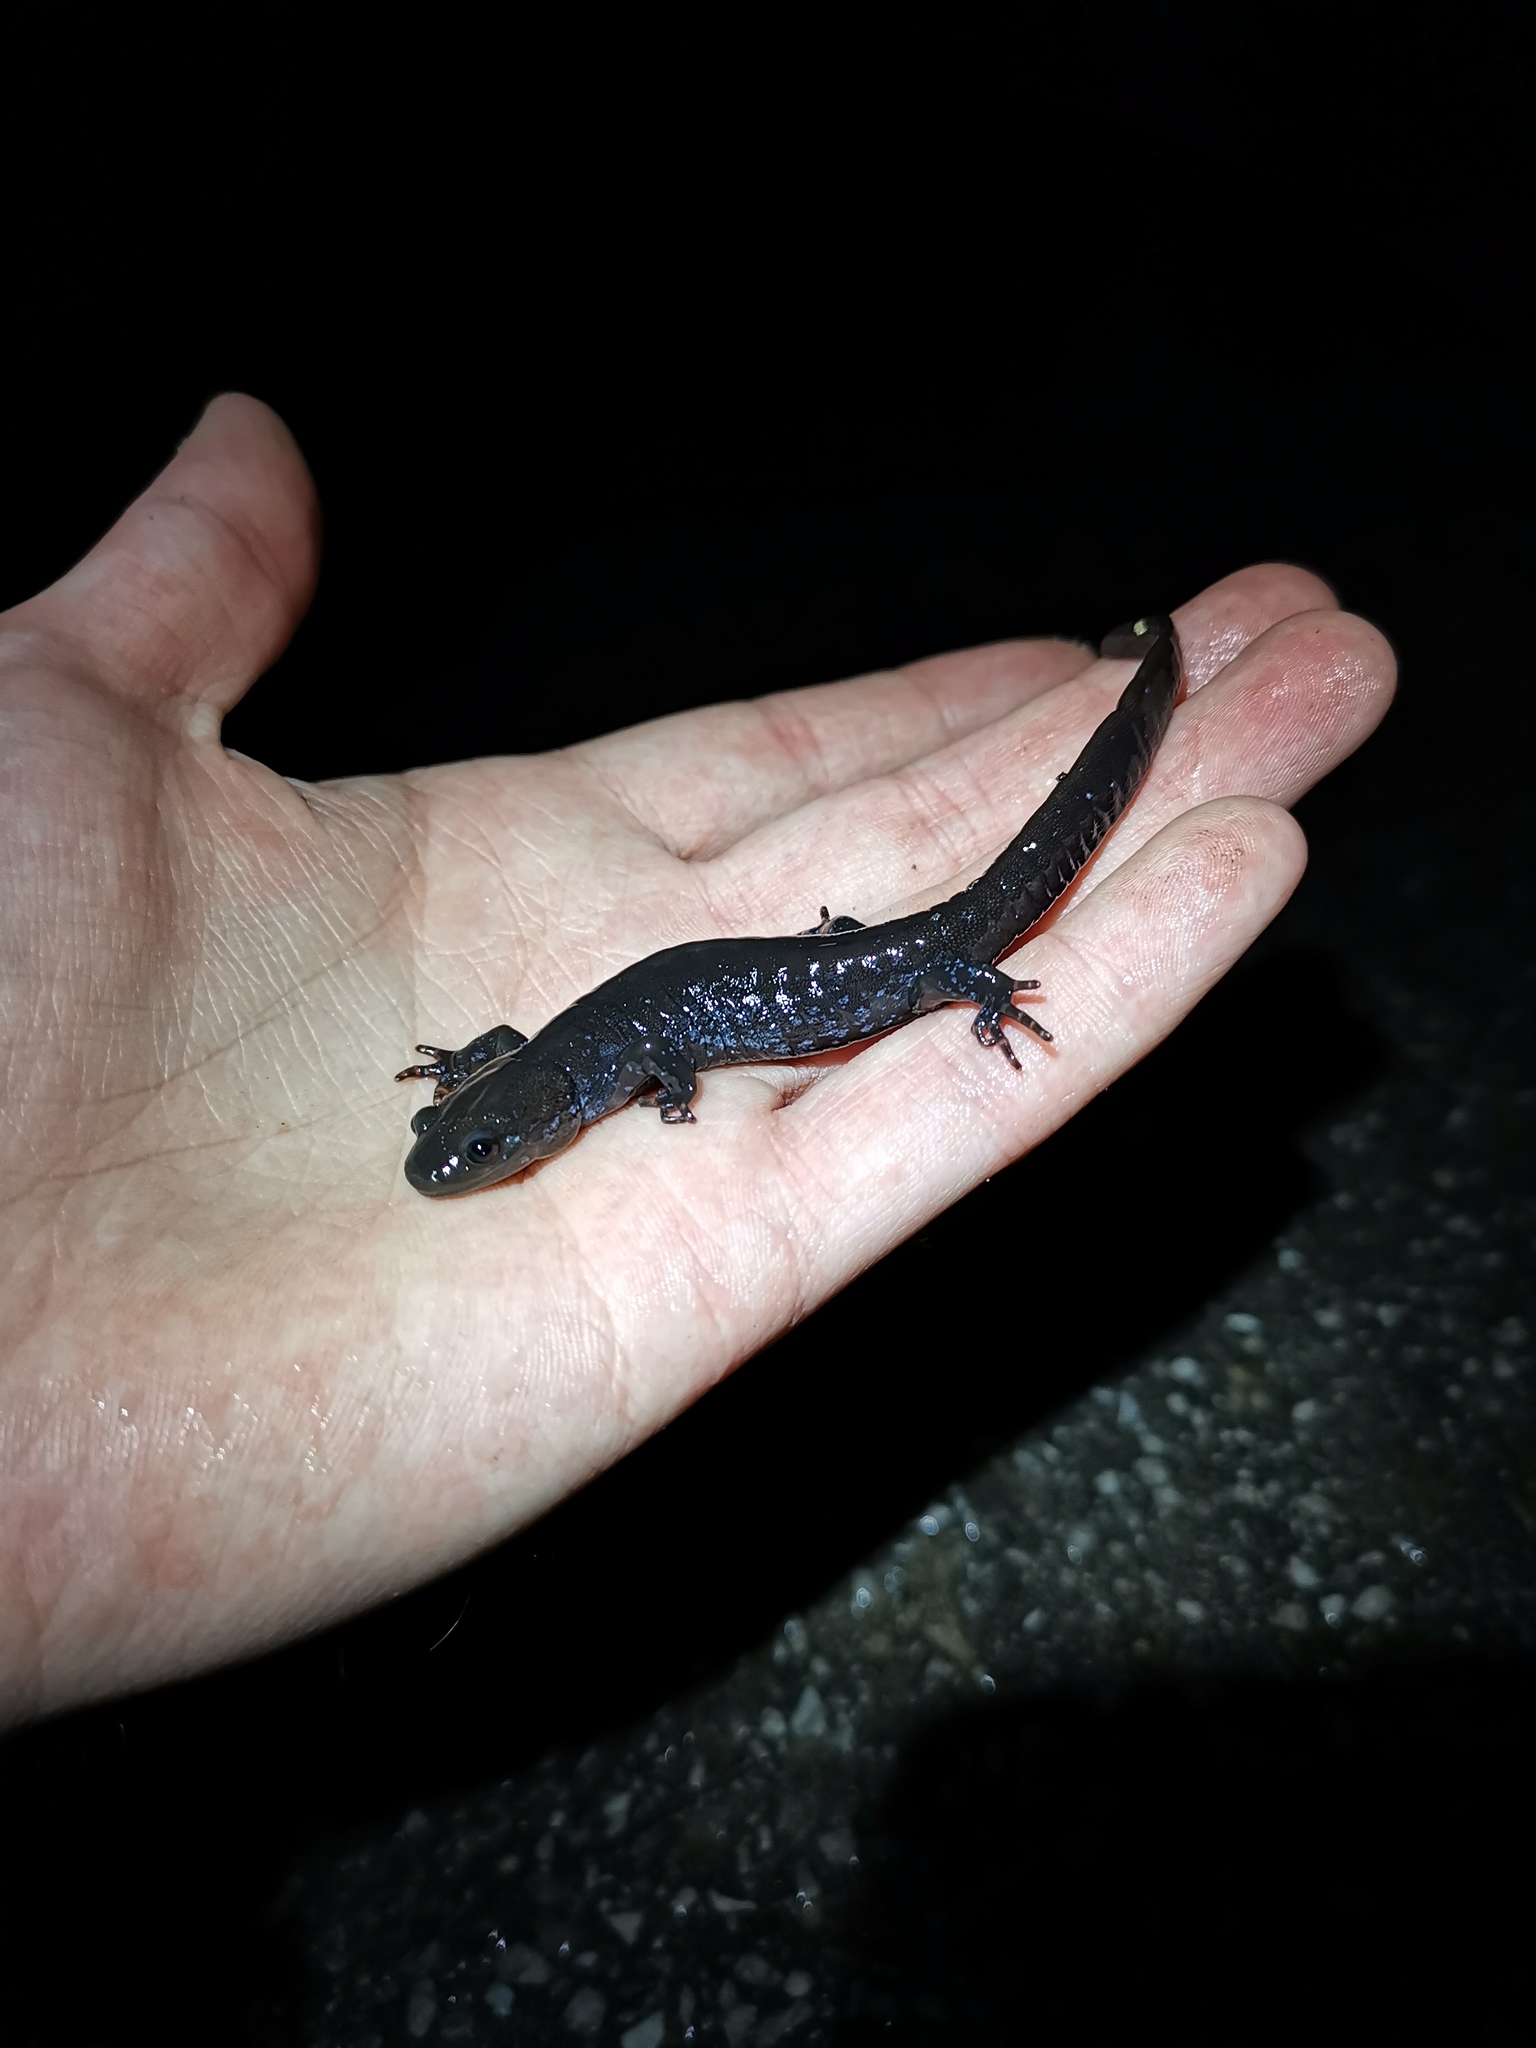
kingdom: Animalia
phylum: Chordata
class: Amphibia
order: Caudata
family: Ambystomatidae
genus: Ambystoma
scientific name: Ambystoma laterale
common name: Blue-spotted salamander
